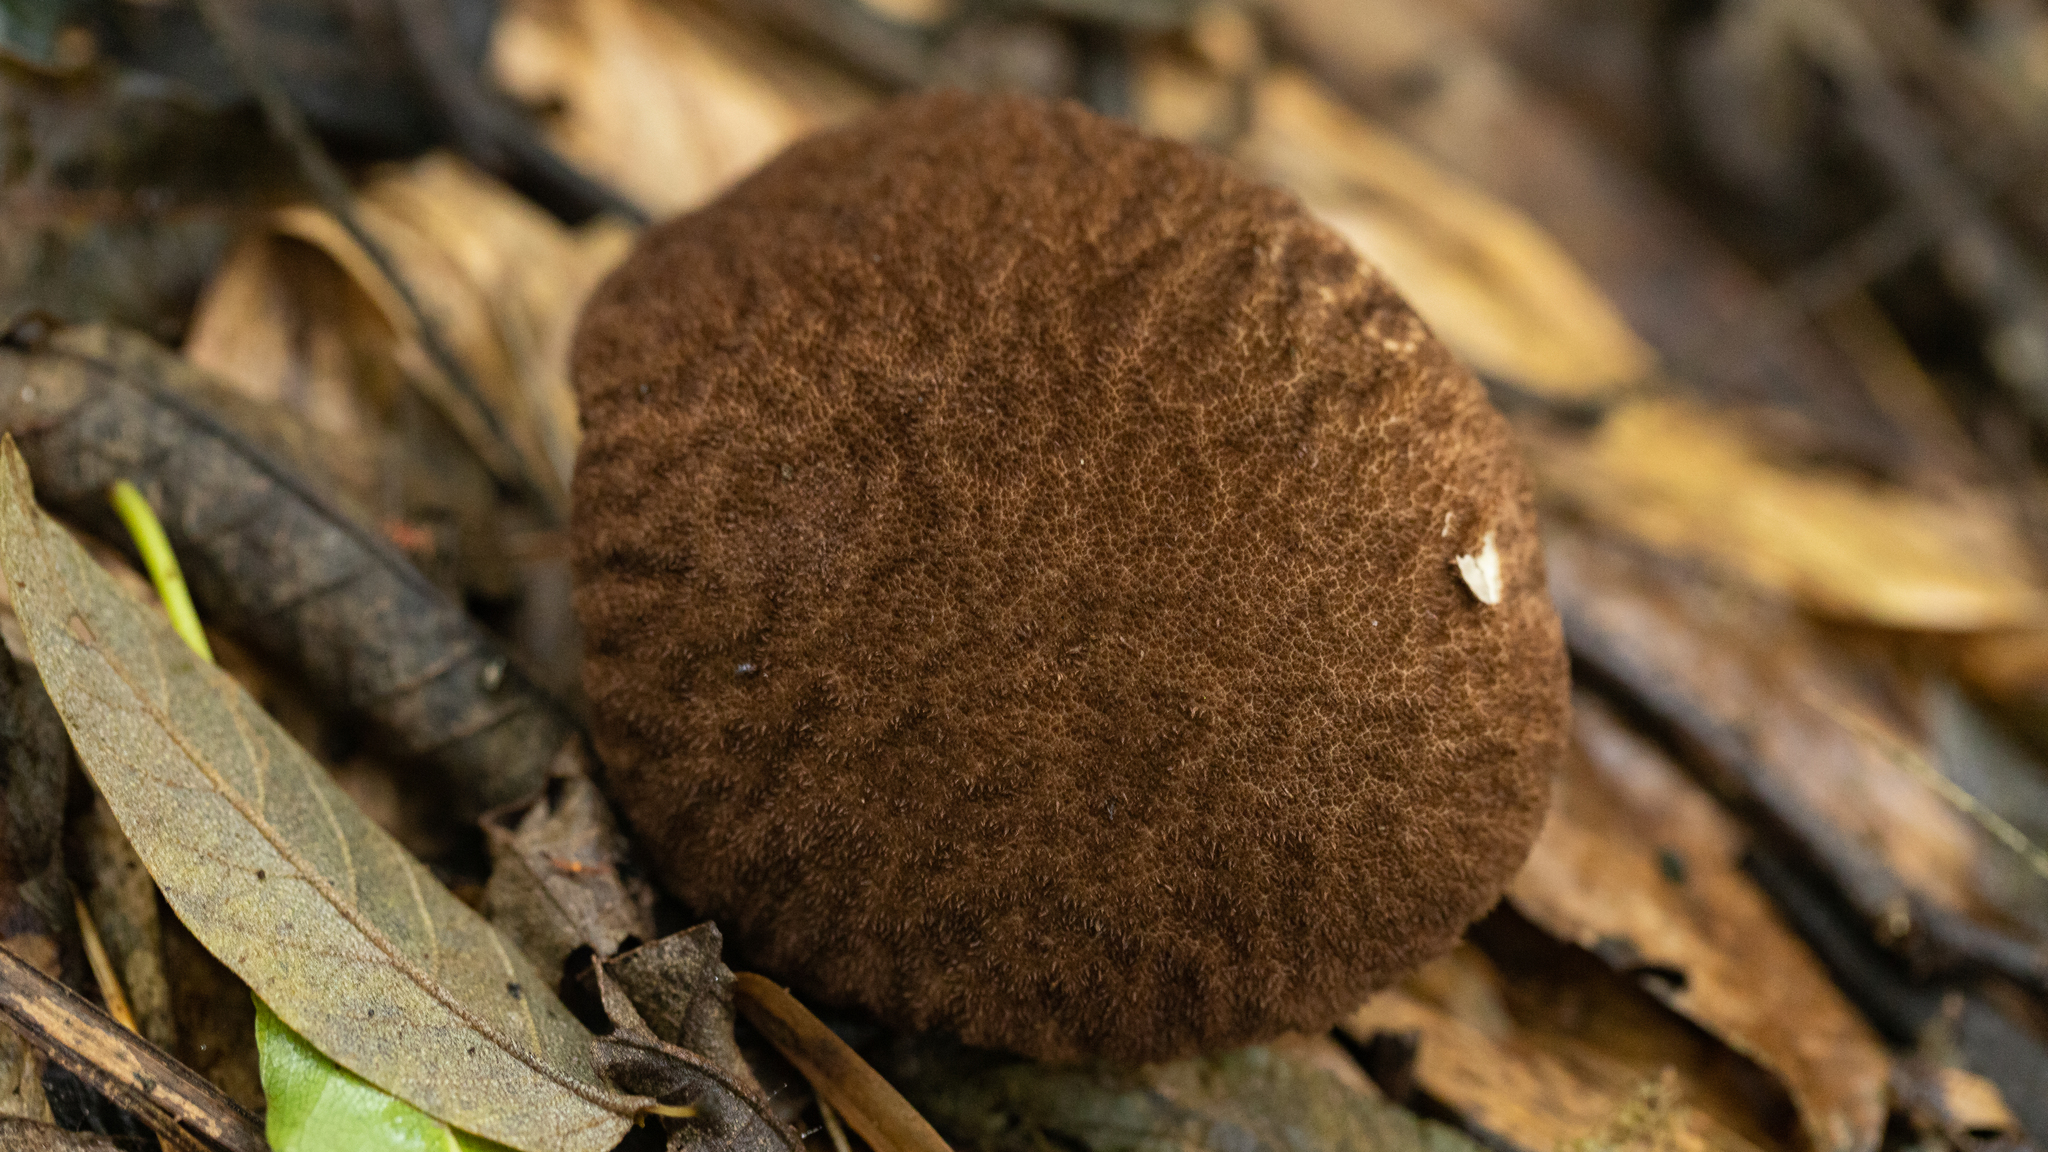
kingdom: Fungi
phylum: Basidiomycota
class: Agaricomycetes
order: Agaricales
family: Lycoperdaceae
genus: Calvatia
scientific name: Calvatia guzmanii
